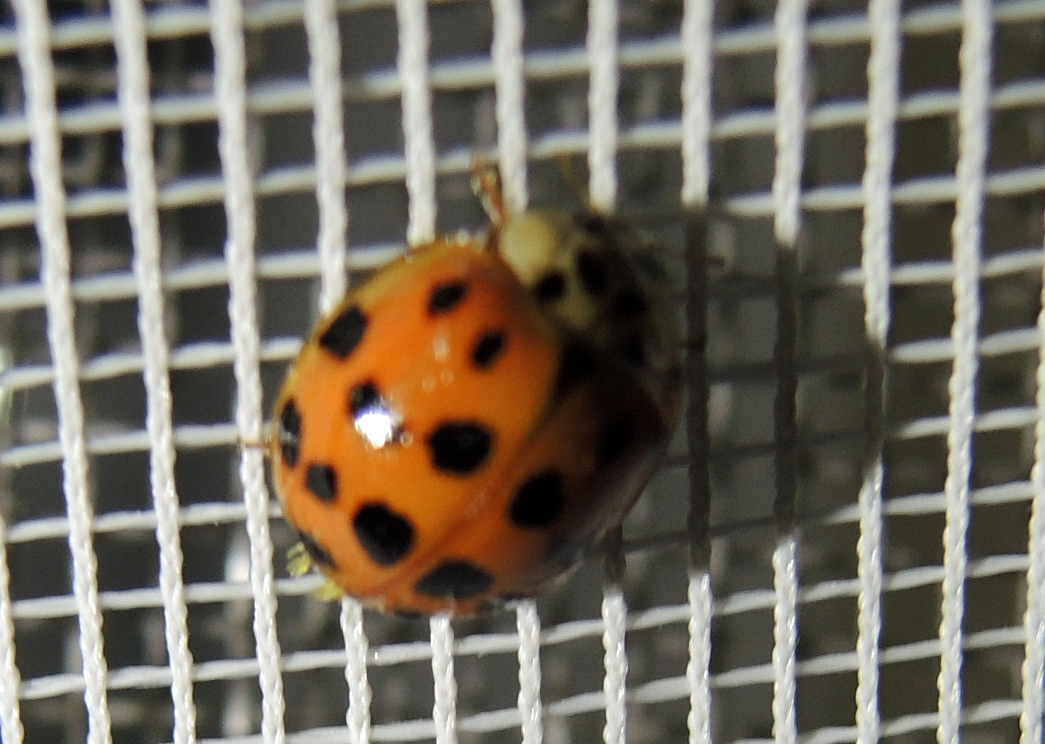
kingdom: Animalia
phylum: Arthropoda
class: Insecta
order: Coleoptera
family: Coccinellidae
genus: Harmonia
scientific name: Harmonia axyridis
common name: Harlequin ladybird
